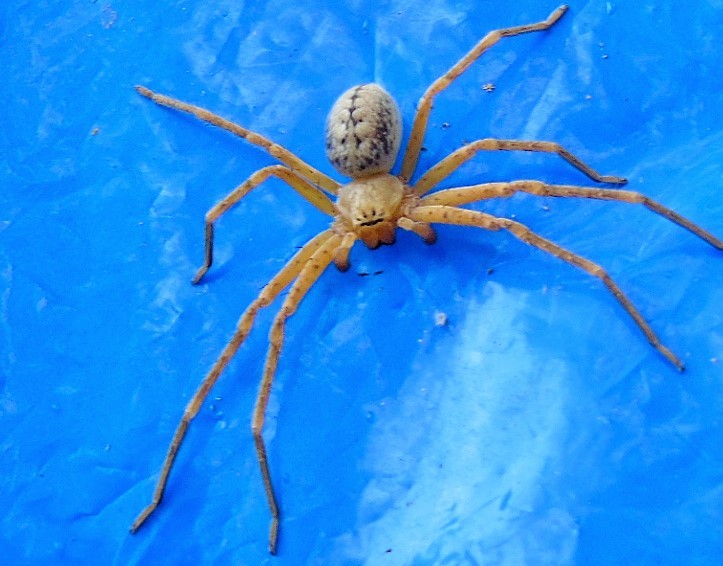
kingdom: Animalia
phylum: Arthropoda
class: Arachnida
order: Araneae
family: Sparassidae
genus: Curicaberis
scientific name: Curicaberis culiacan
